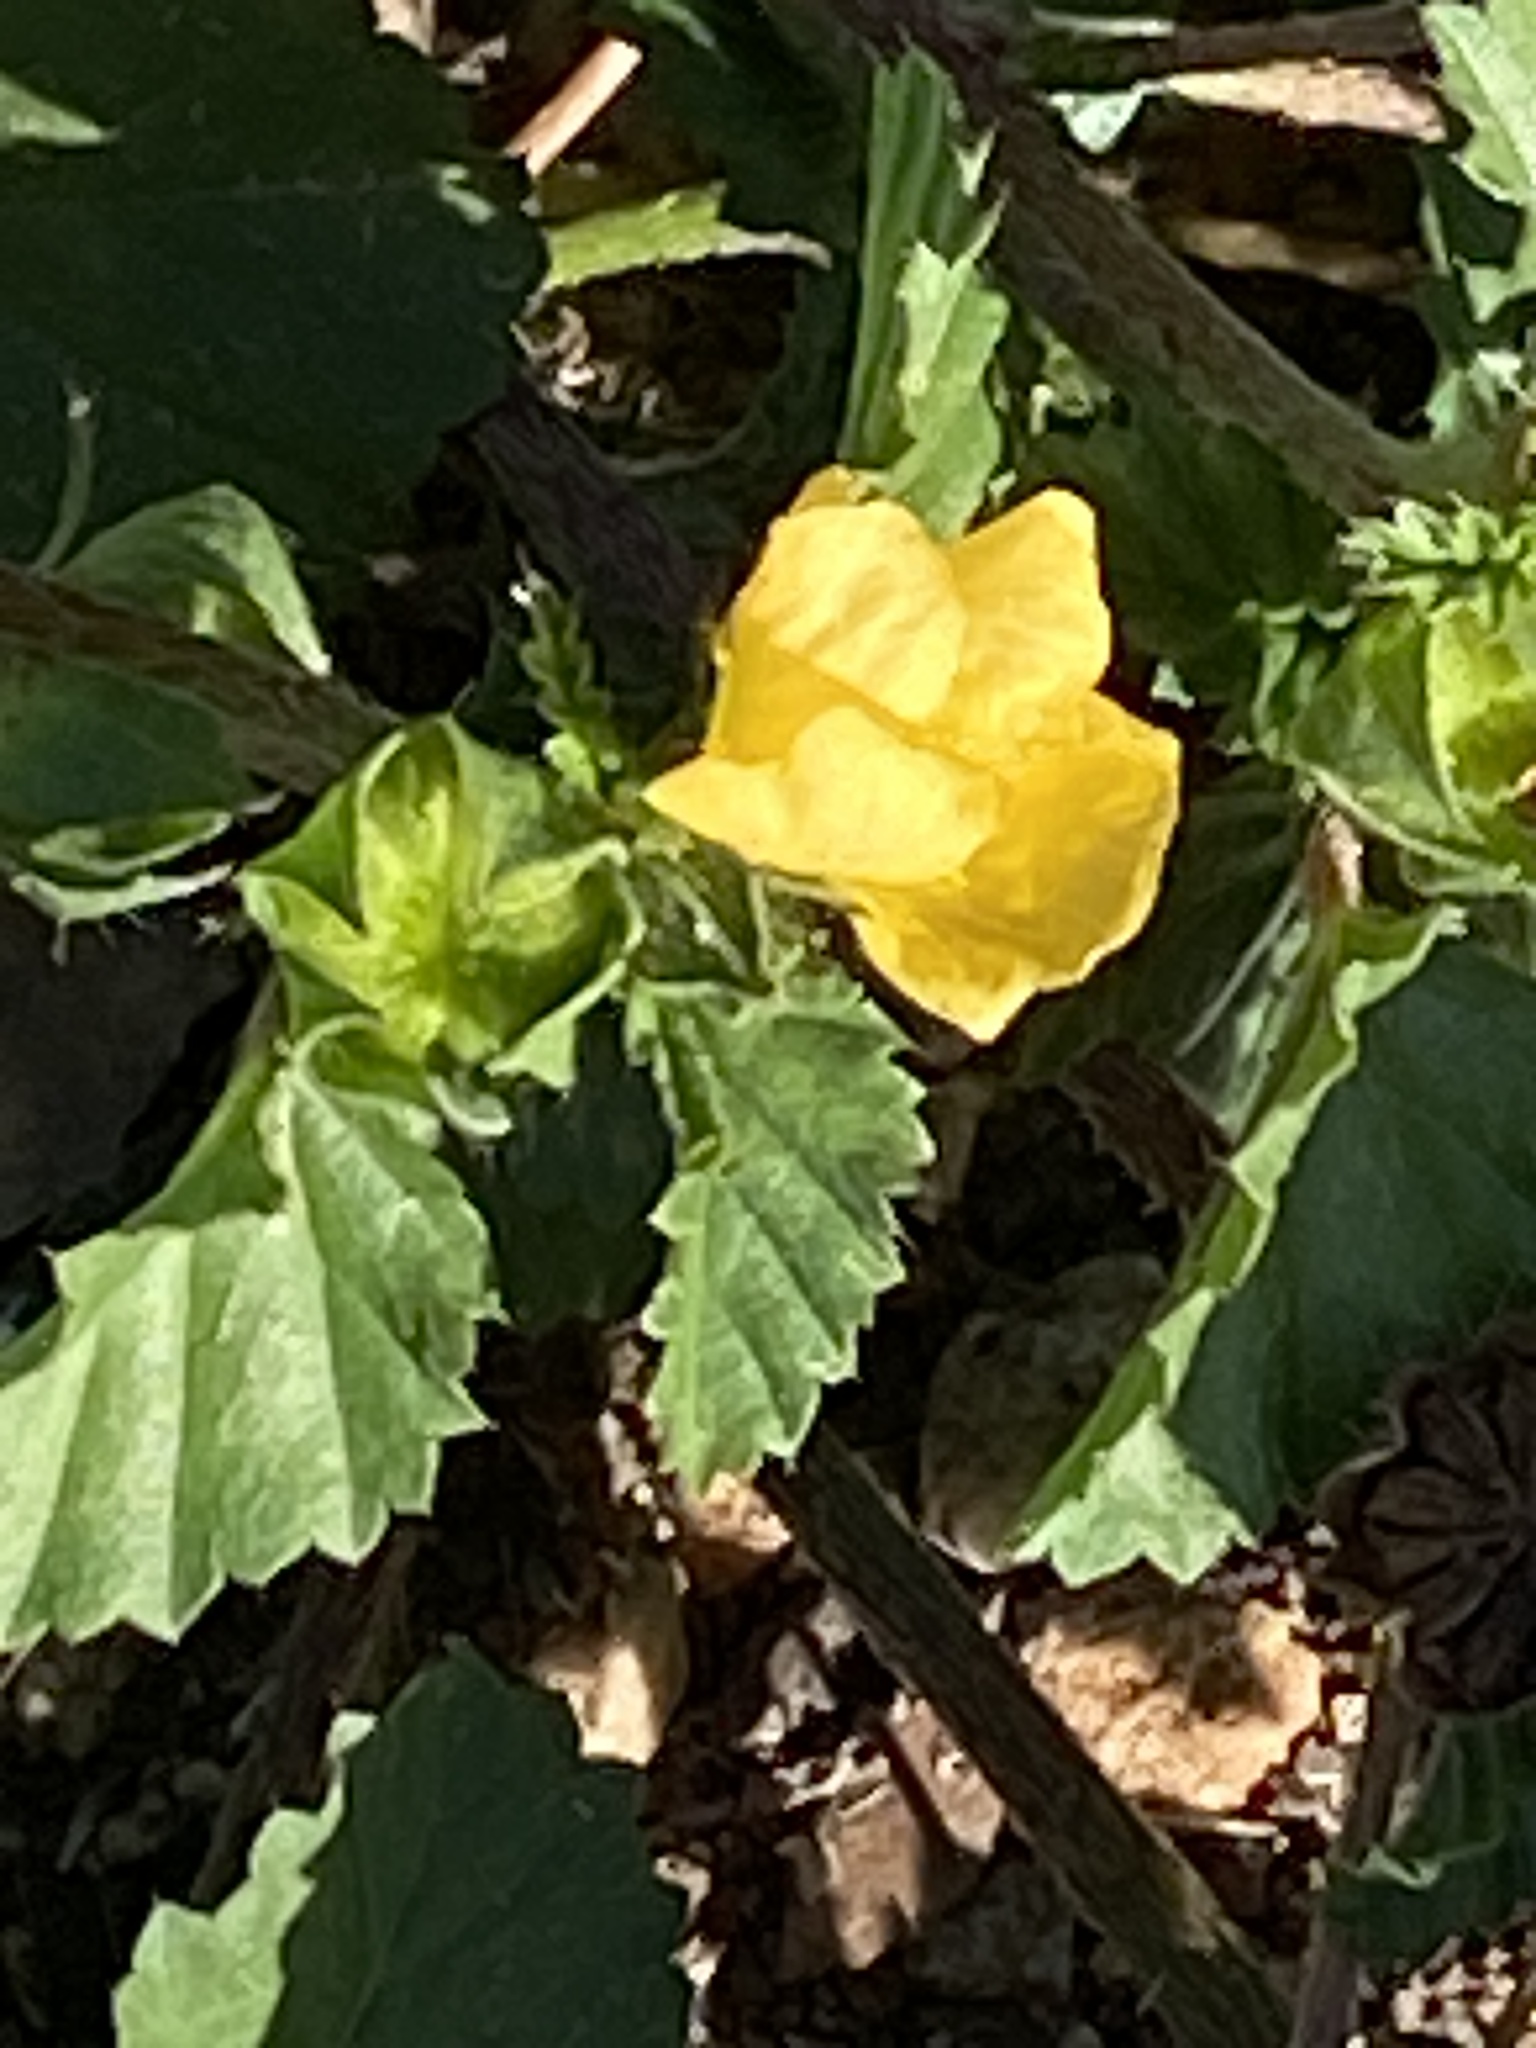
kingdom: Plantae
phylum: Tracheophyta
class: Magnoliopsida
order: Malvales
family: Malvaceae
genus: Malvastrum
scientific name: Malvastrum coromandelianum
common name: Threelobe false mallow
